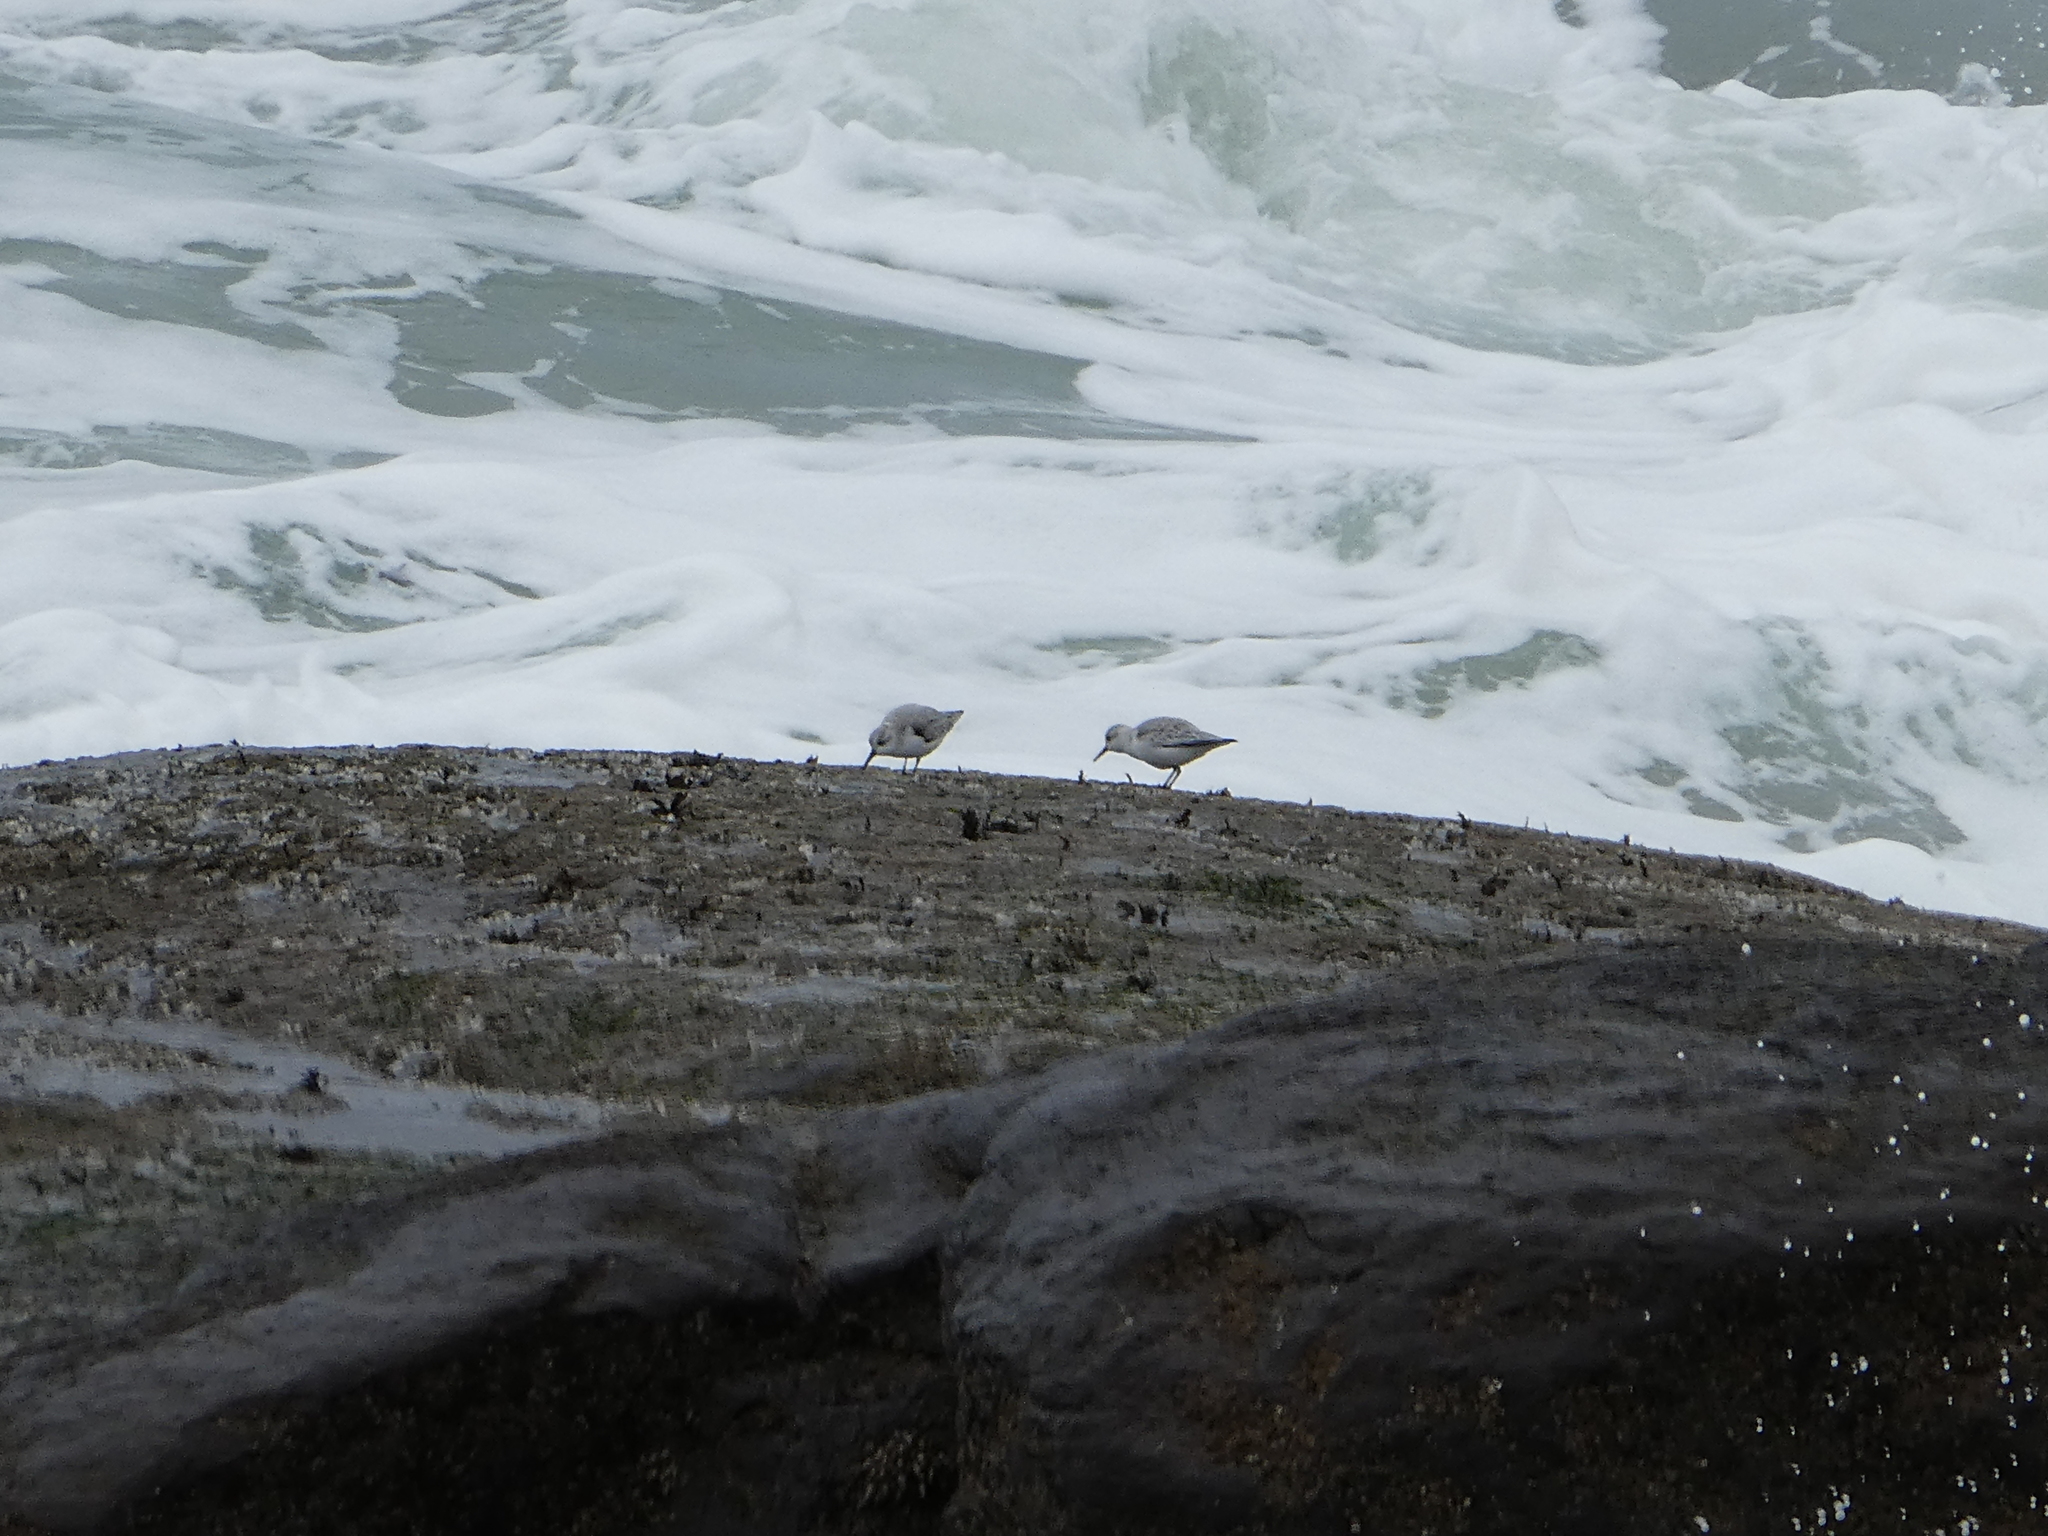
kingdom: Animalia
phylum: Chordata
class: Aves
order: Charadriiformes
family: Scolopacidae
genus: Calidris
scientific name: Calidris alba
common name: Sanderling
